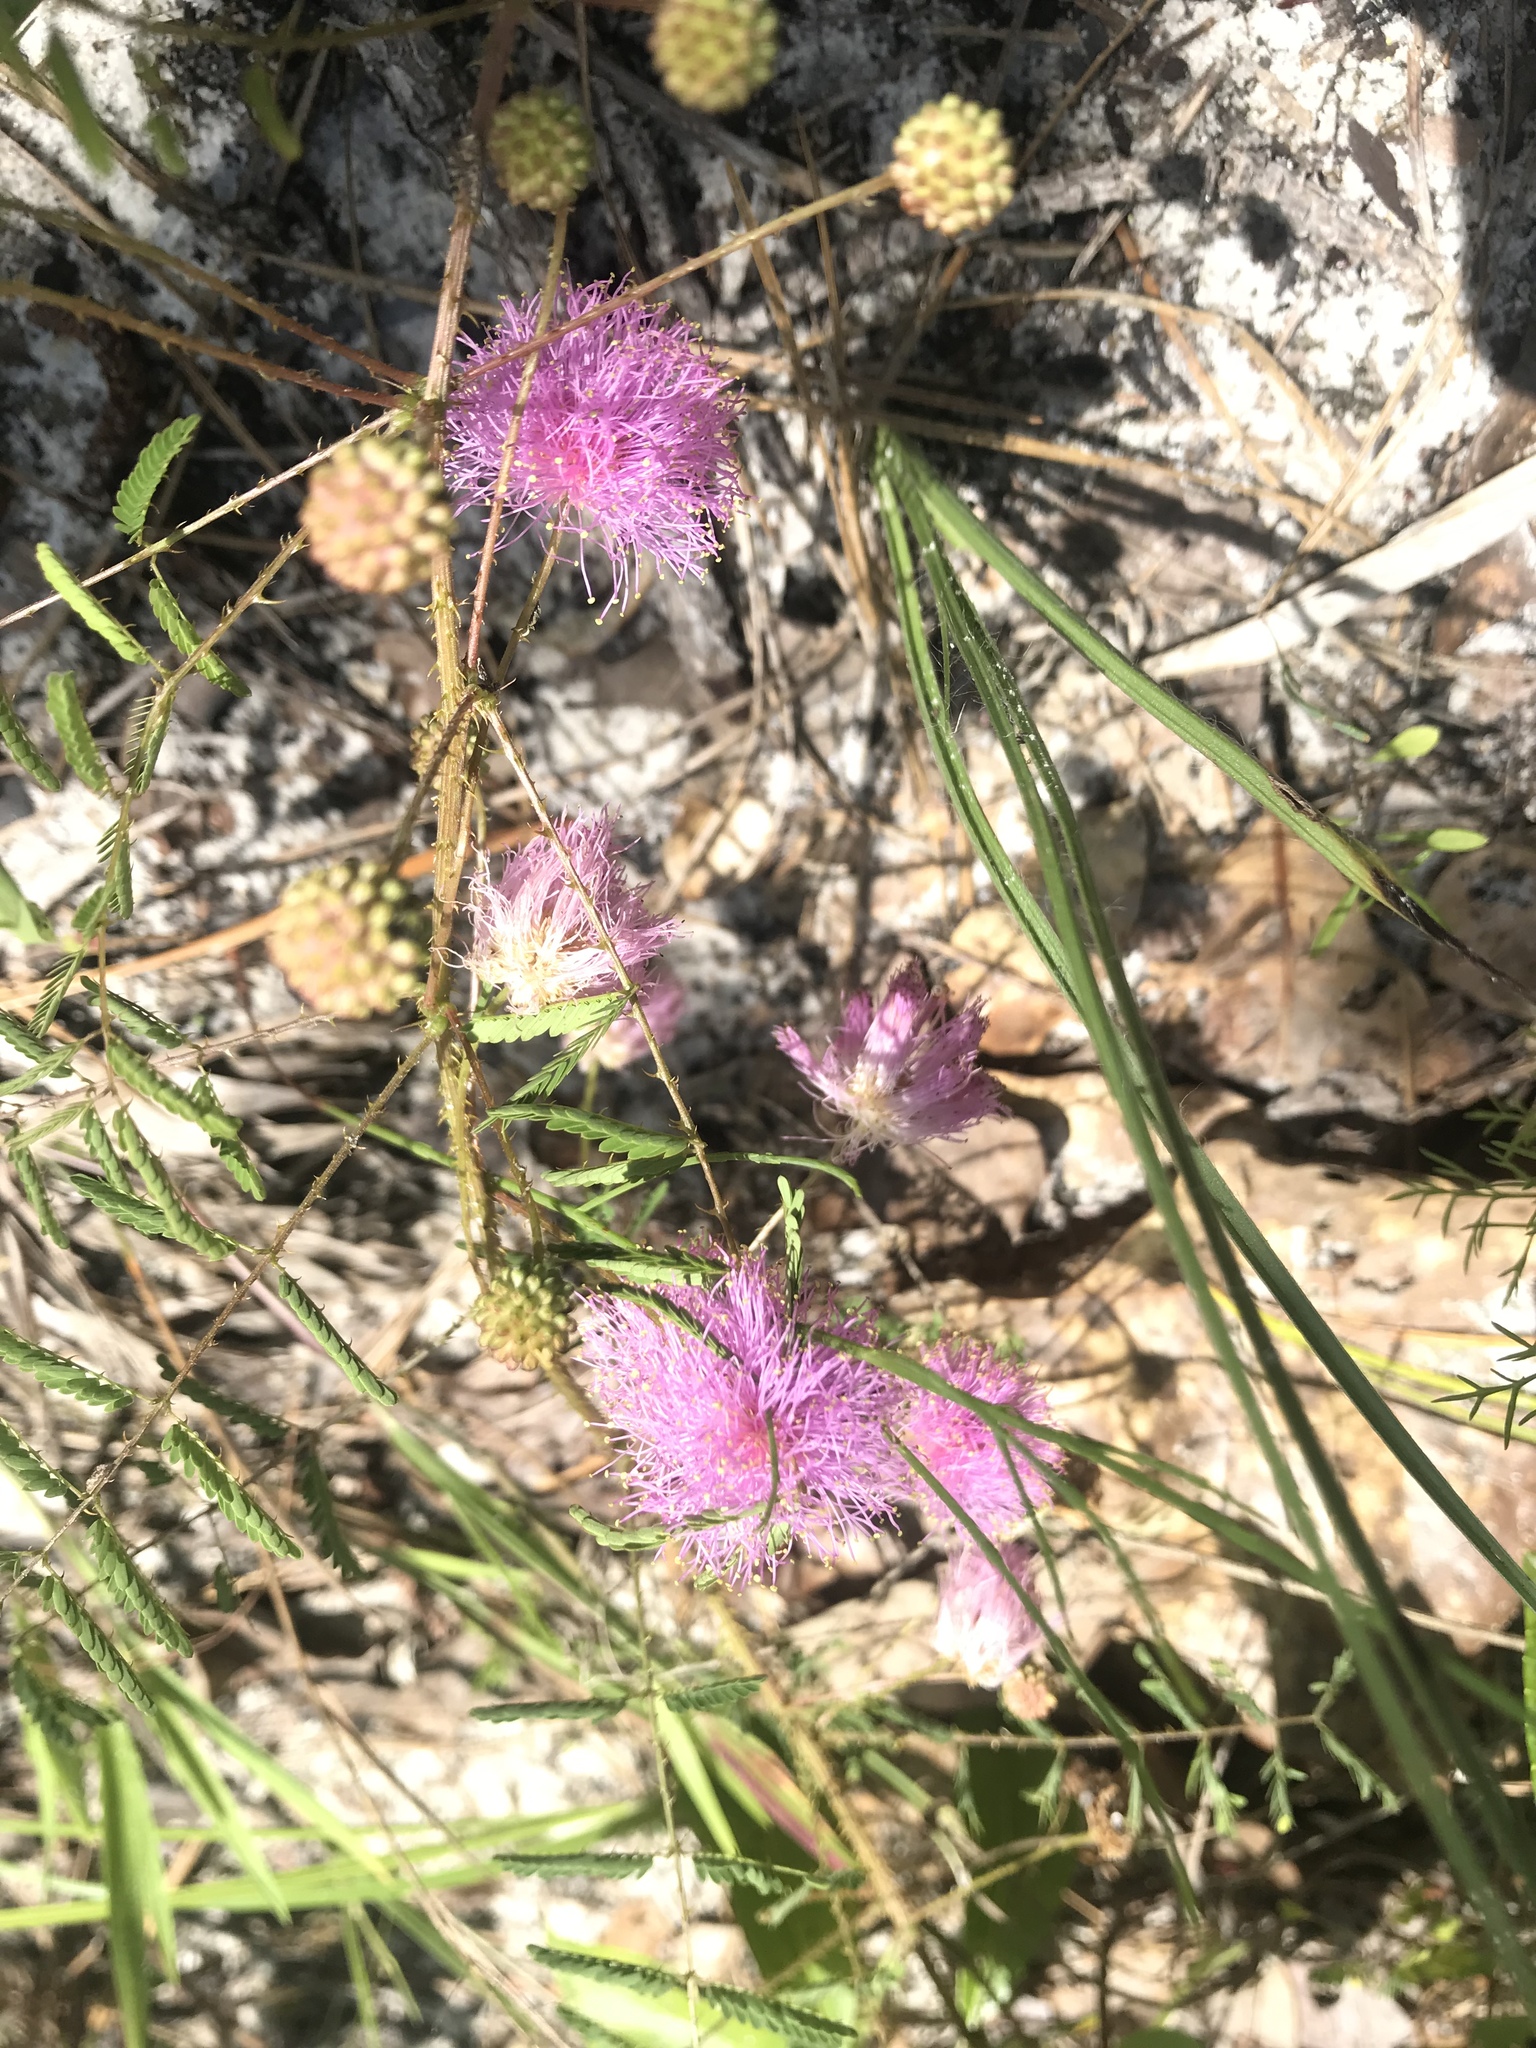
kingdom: Plantae
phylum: Tracheophyta
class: Magnoliopsida
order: Fabales
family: Fabaceae
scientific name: Fabaceae
